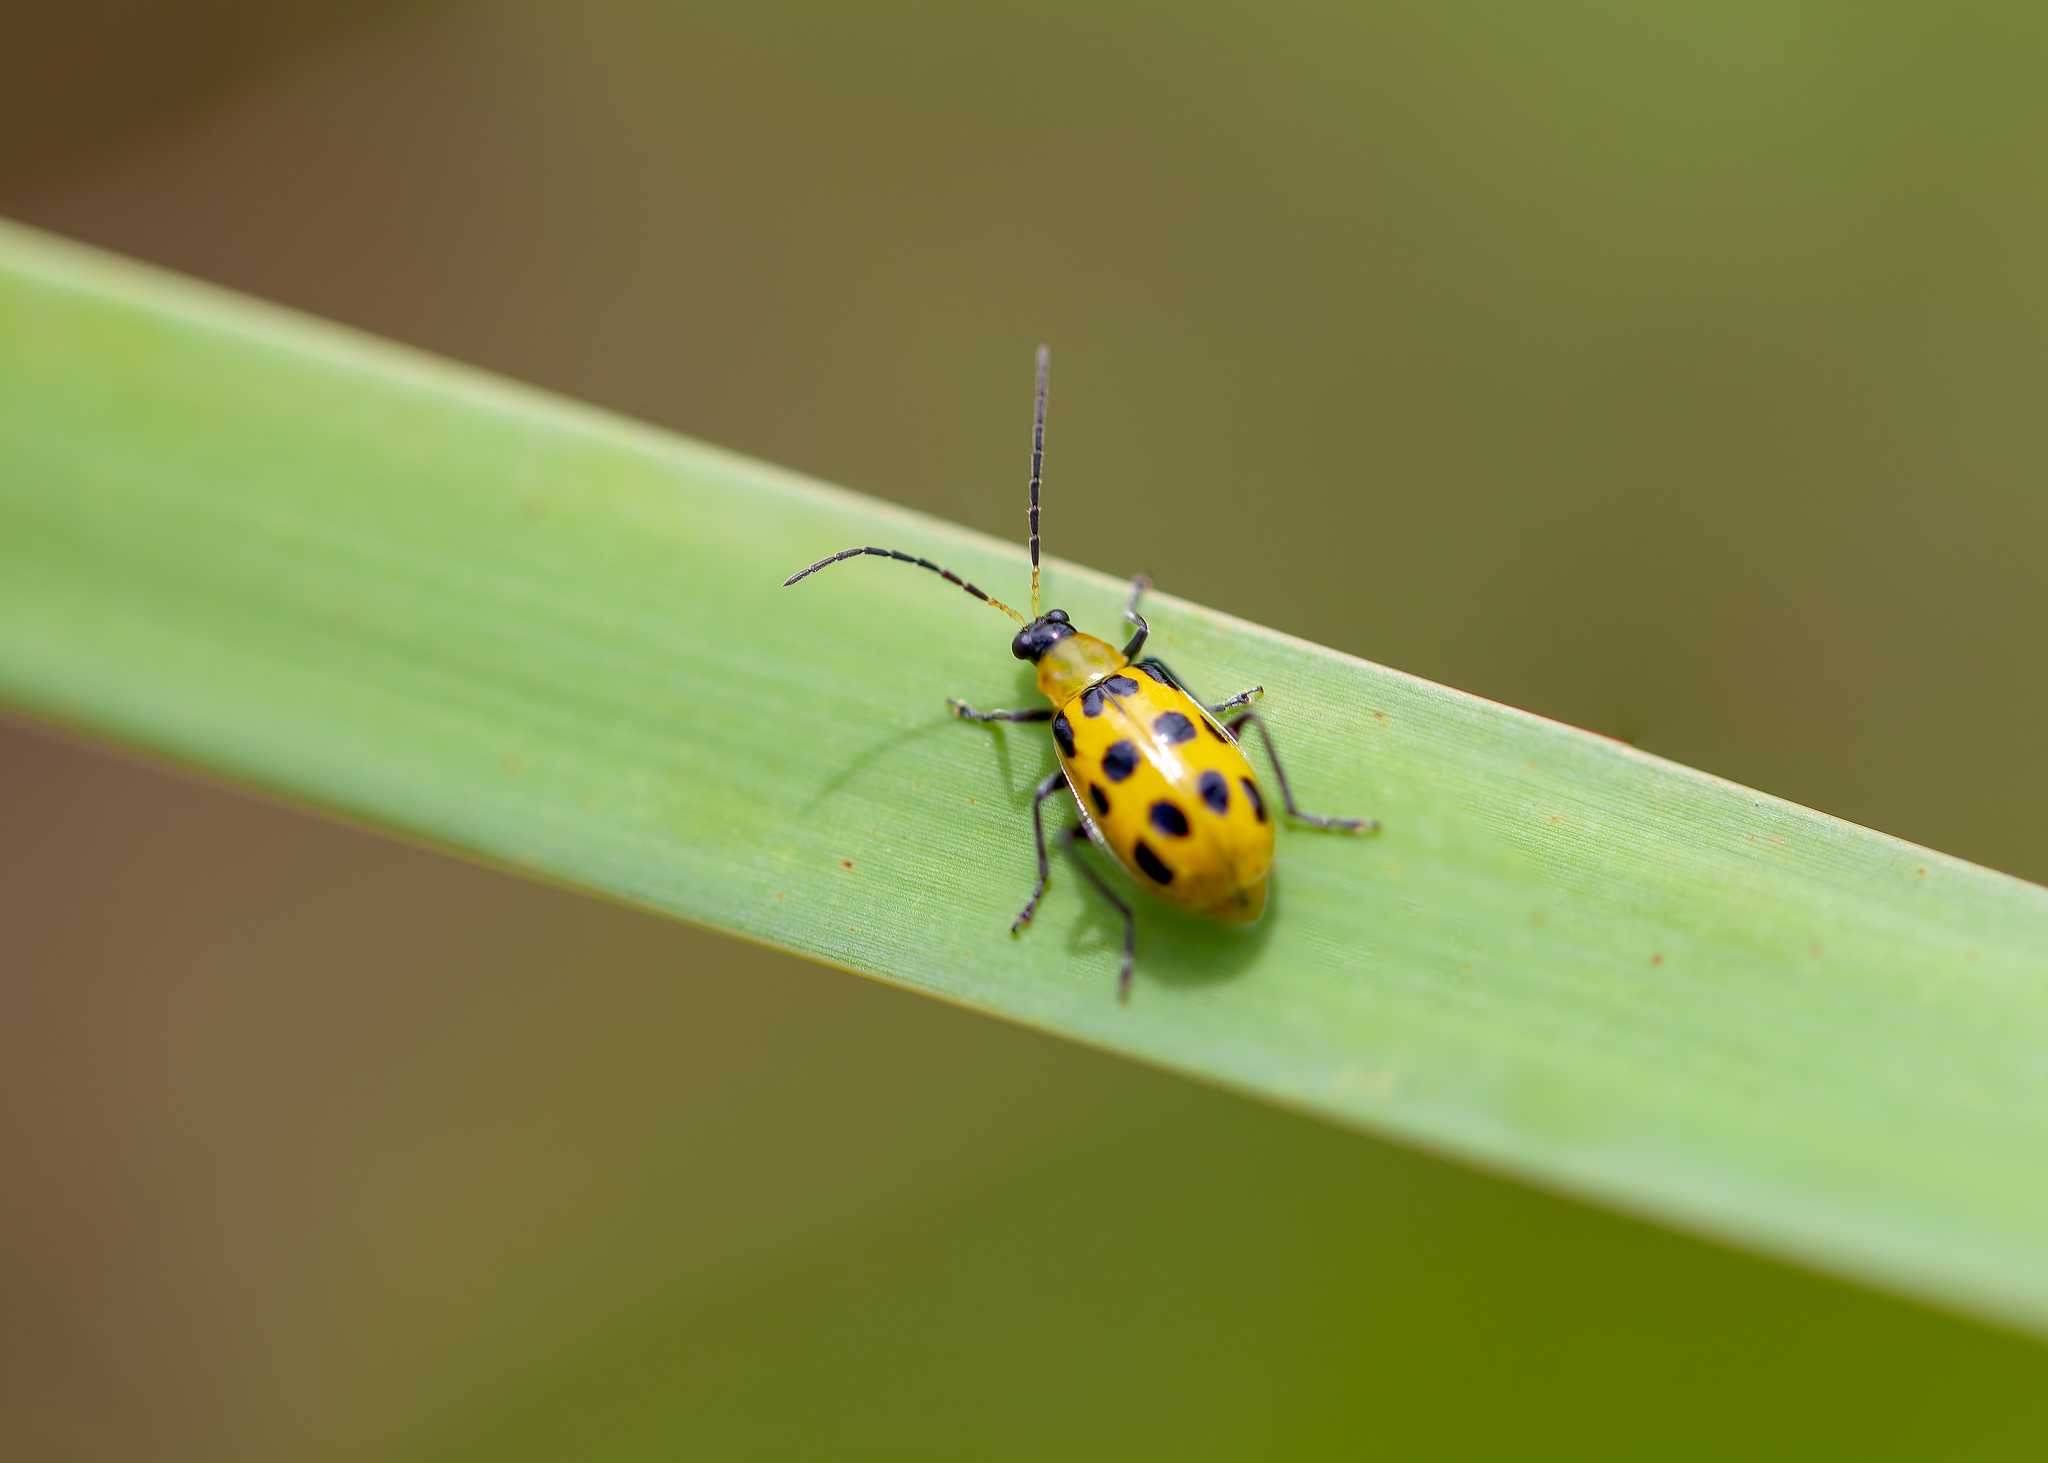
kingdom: Animalia
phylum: Arthropoda
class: Insecta
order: Coleoptera
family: Chrysomelidae
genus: Diabrotica
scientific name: Diabrotica undecimpunctata
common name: Spotted cucumber beetle
